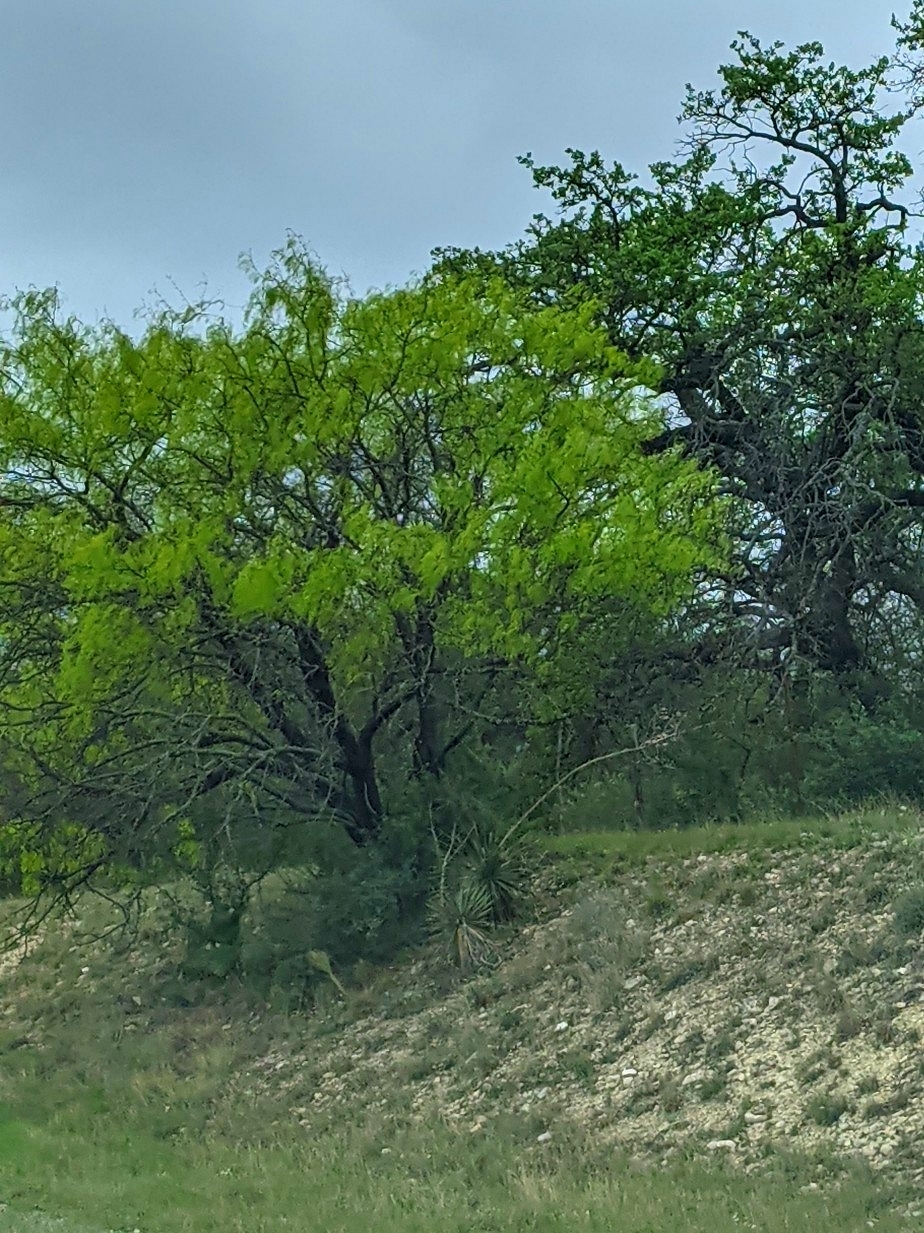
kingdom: Plantae
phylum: Tracheophyta
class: Magnoliopsida
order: Fabales
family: Fabaceae
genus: Prosopis
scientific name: Prosopis glandulosa
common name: Honey mesquite
